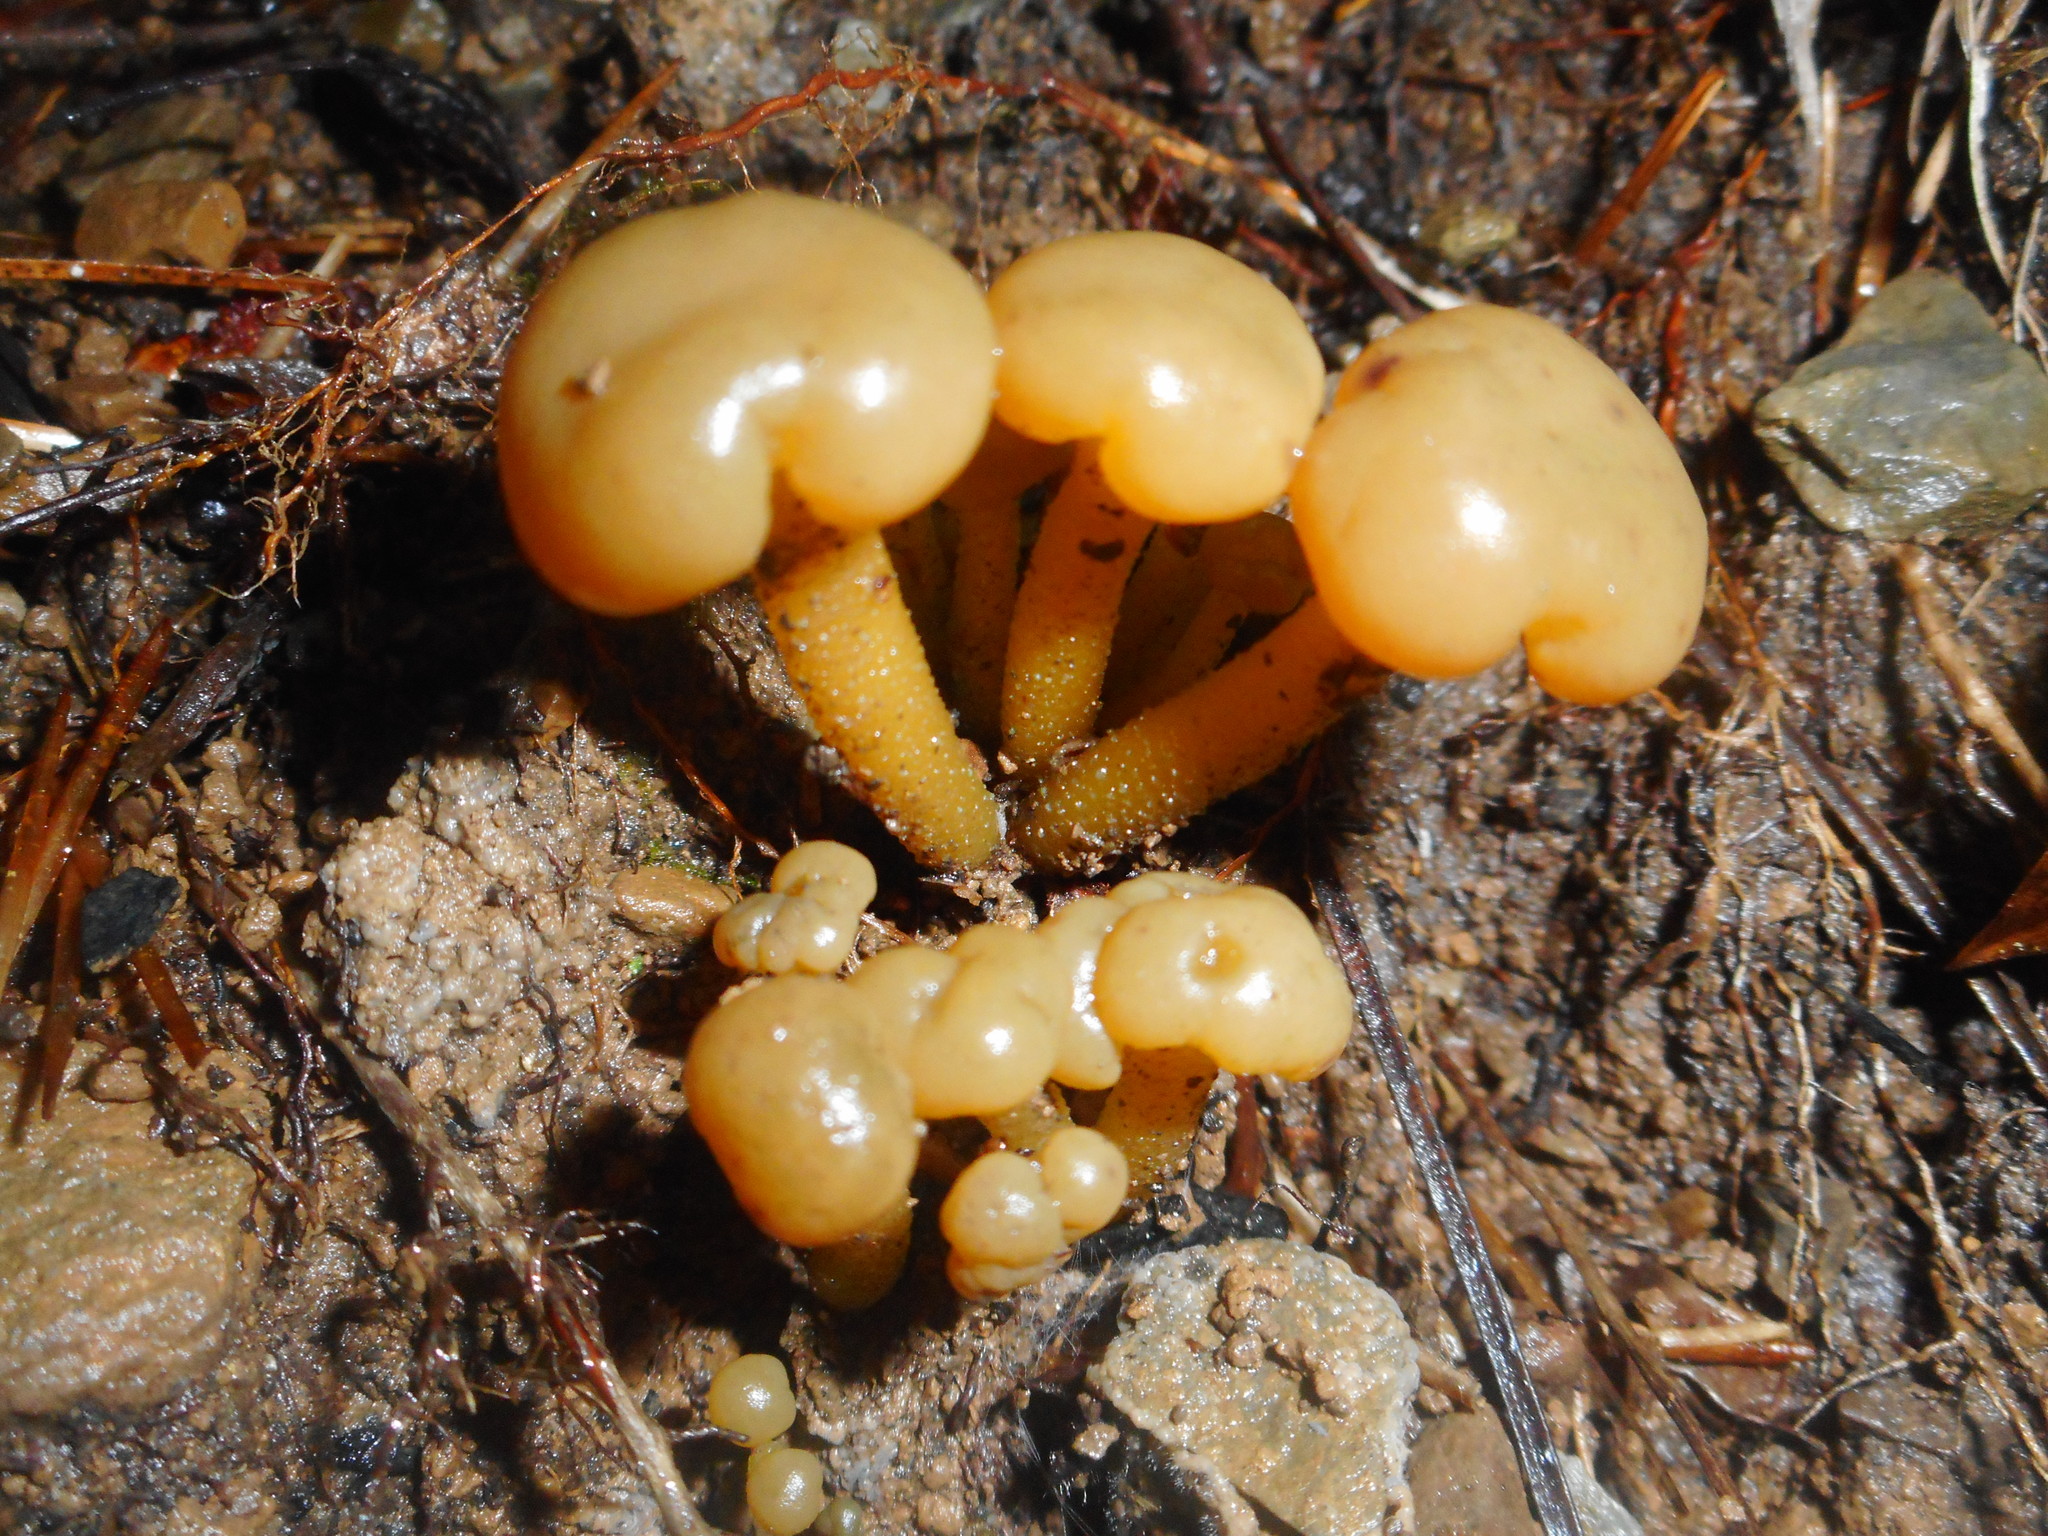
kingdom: Fungi
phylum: Ascomycota
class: Leotiomycetes
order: Leotiales
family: Leotiaceae
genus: Leotia
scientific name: Leotia lubrica
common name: Jellybaby
